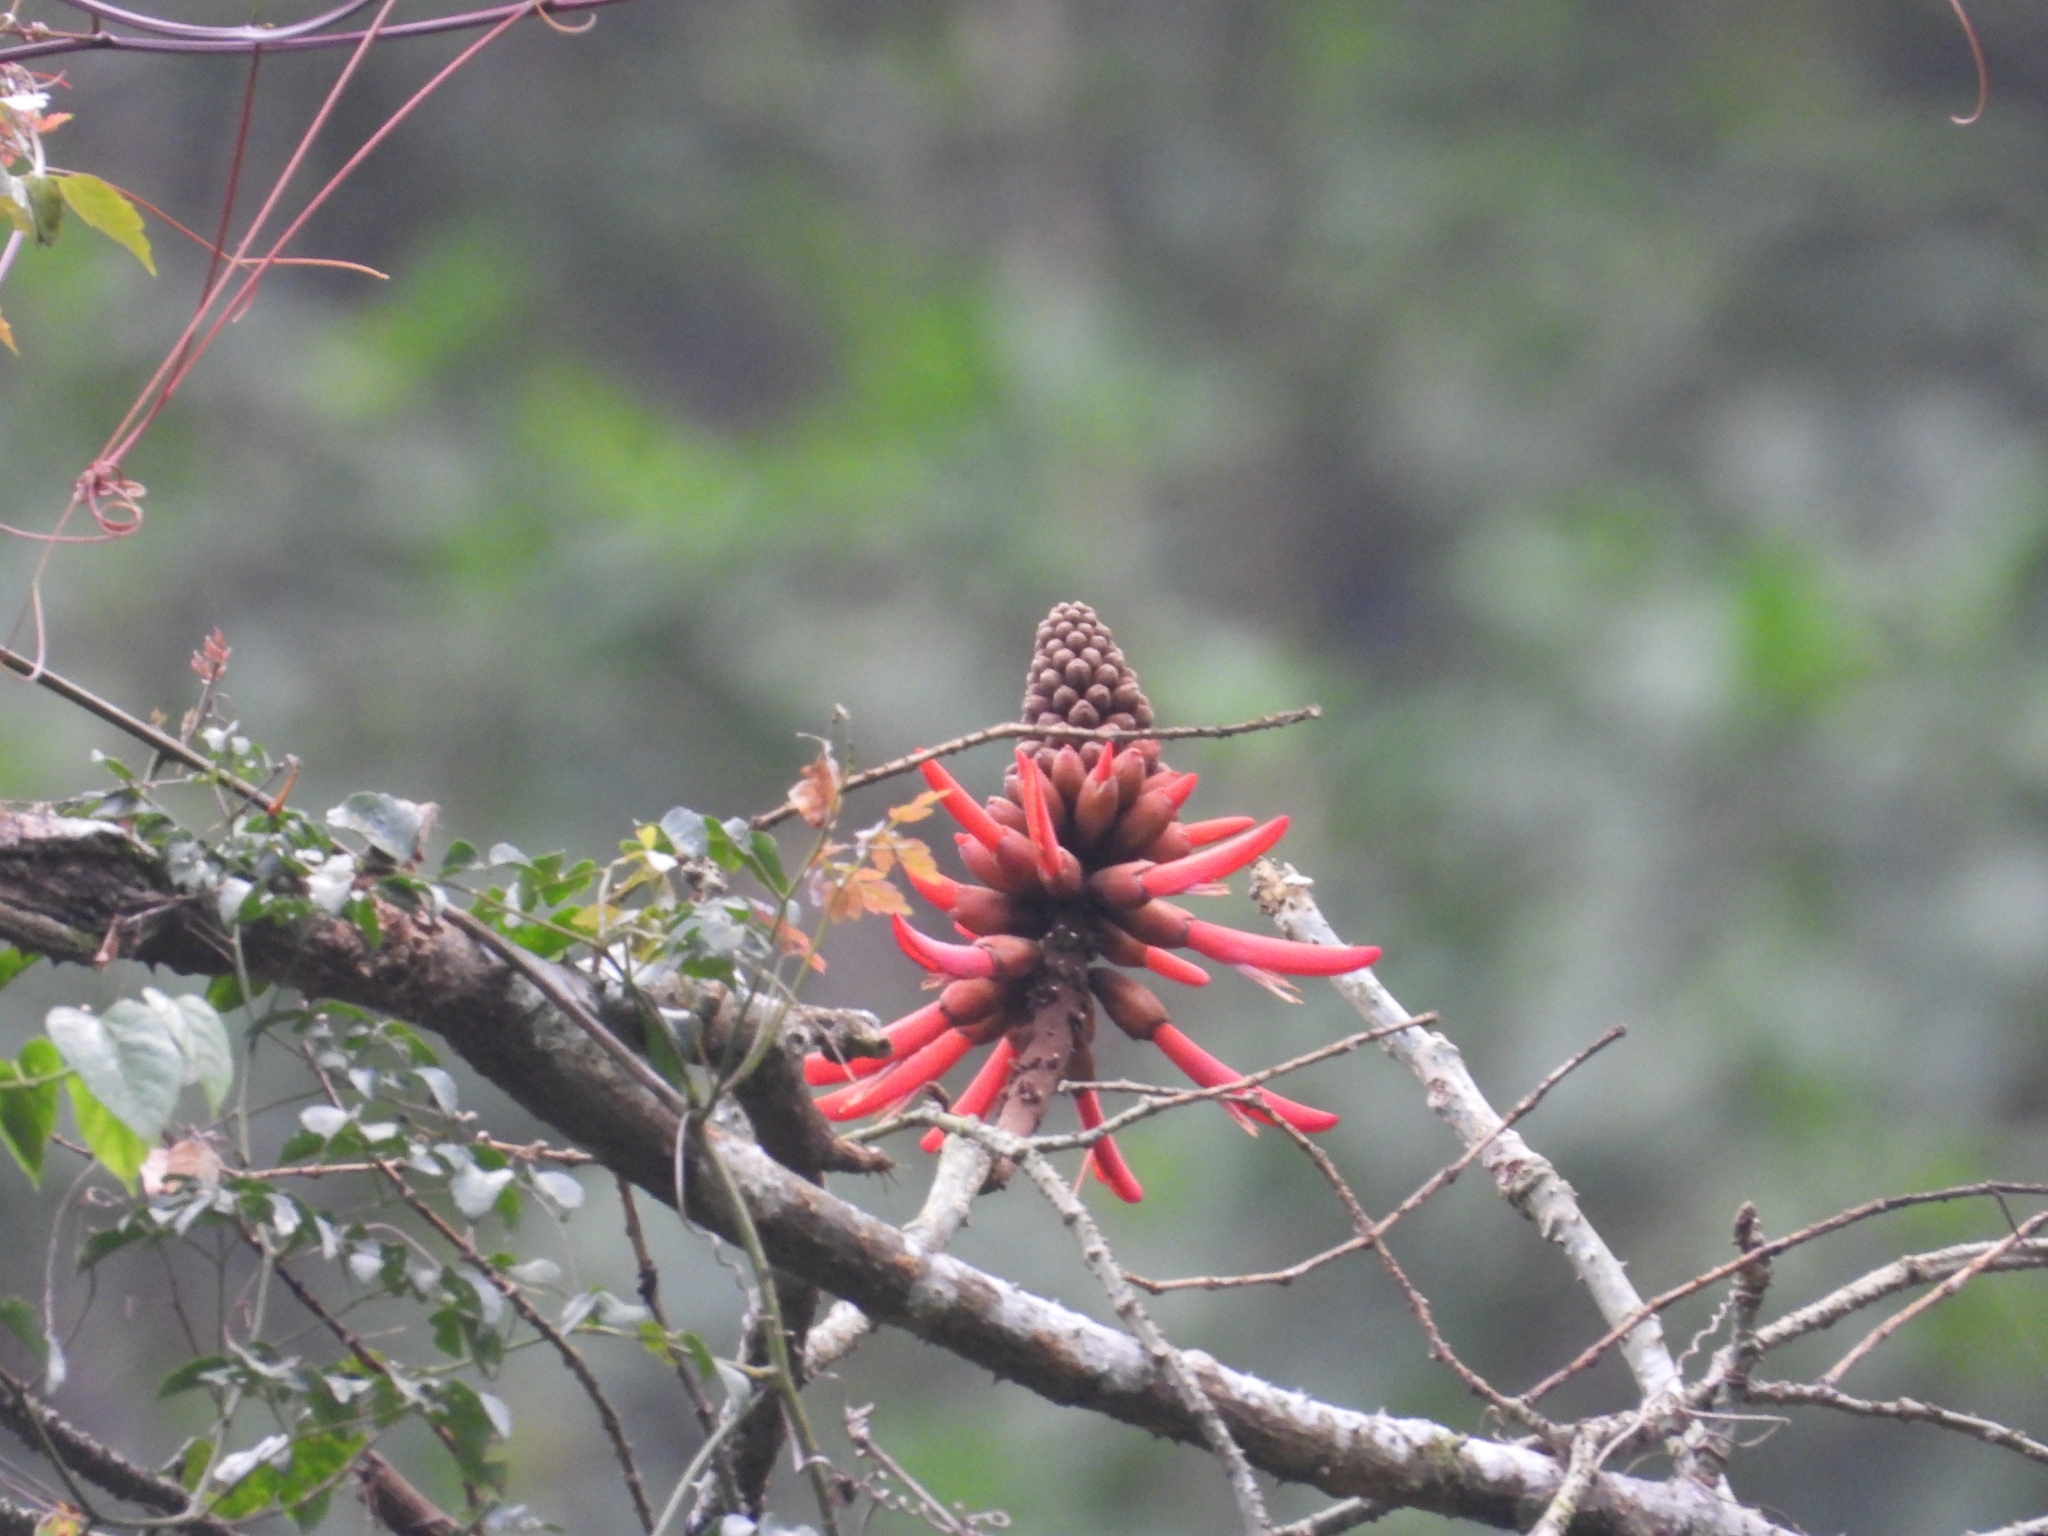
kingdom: Plantae
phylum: Tracheophyta
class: Magnoliopsida
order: Fabales
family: Fabaceae
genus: Erythrina
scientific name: Erythrina americana
